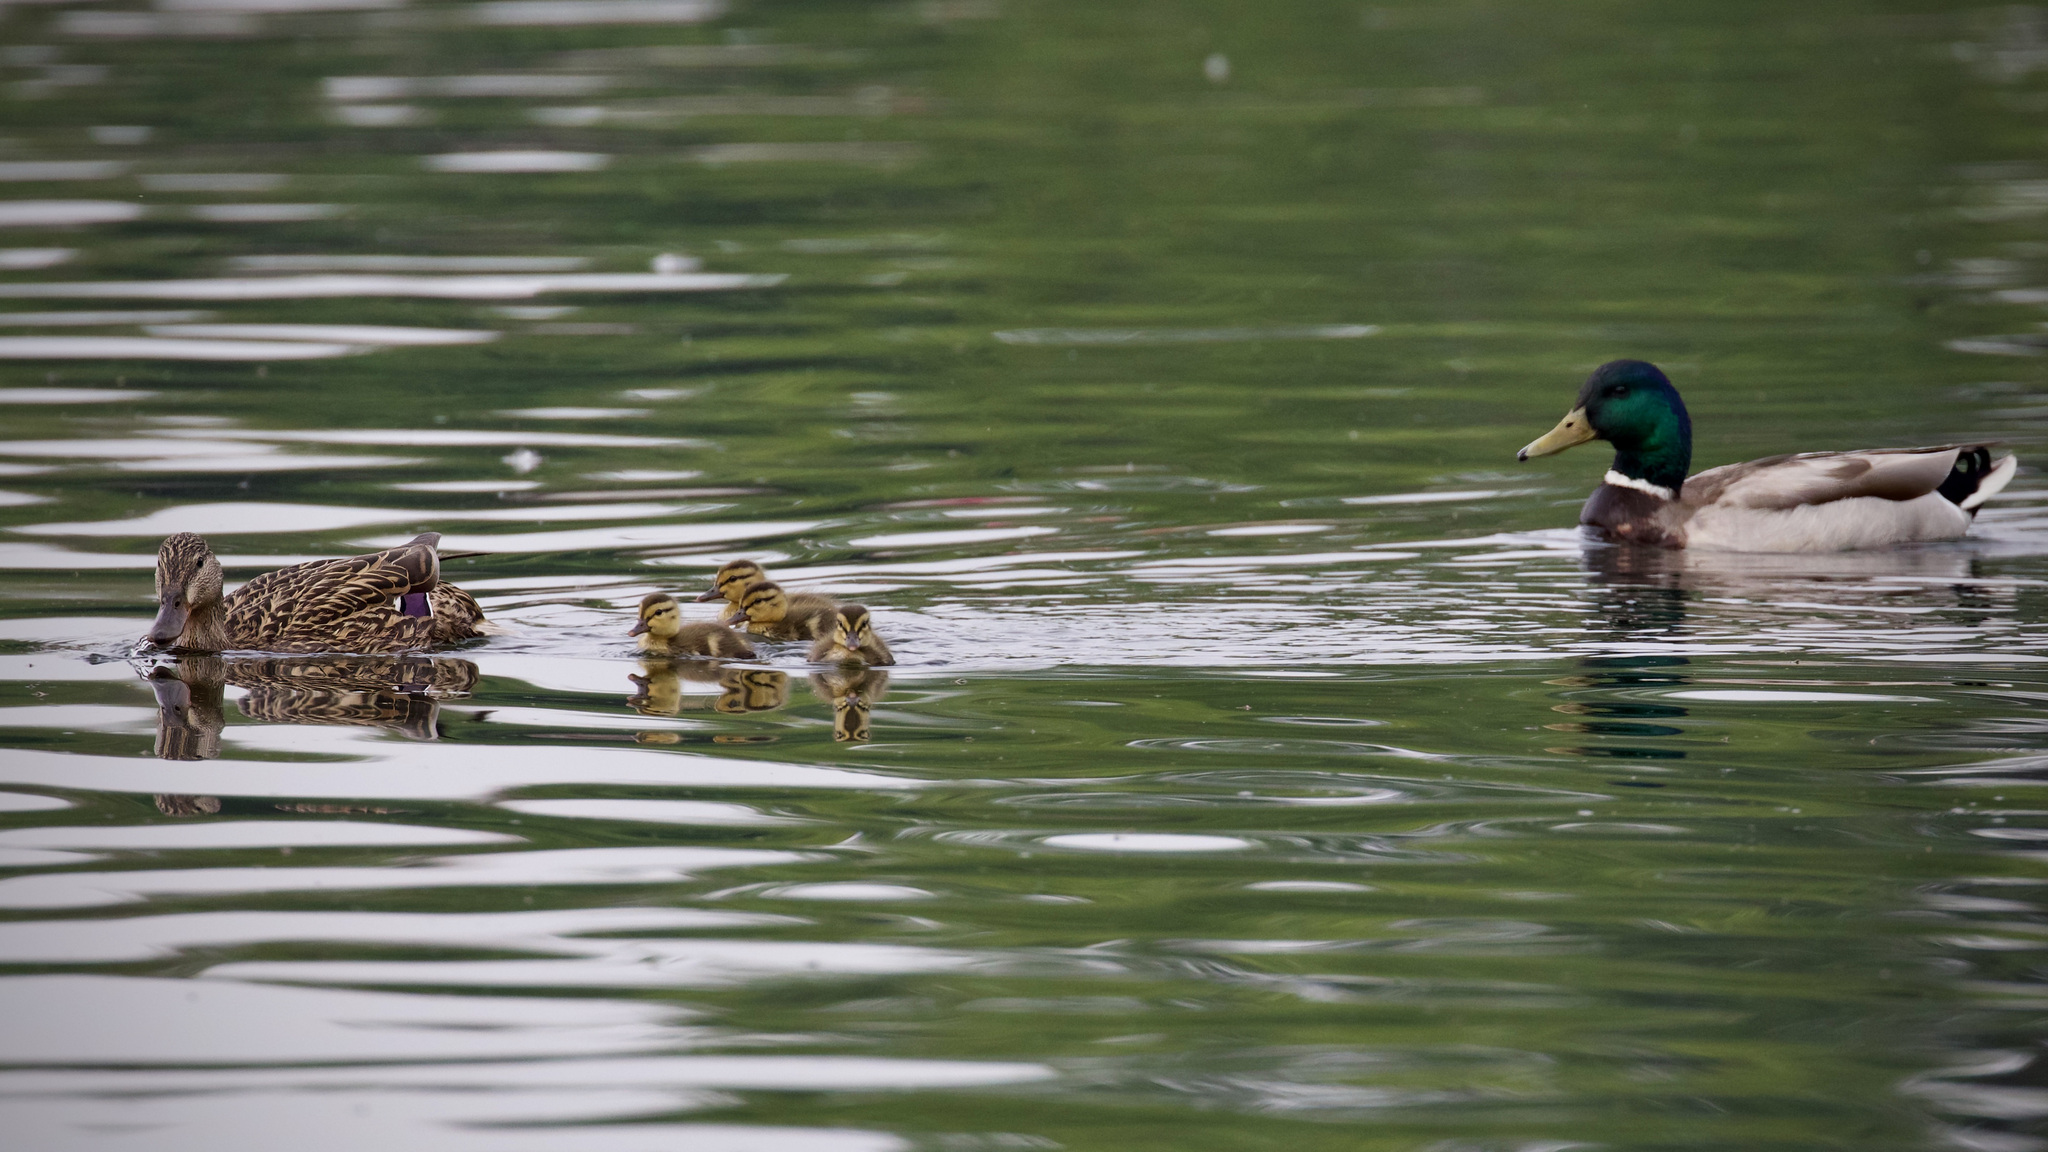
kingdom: Animalia
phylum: Chordata
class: Aves
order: Anseriformes
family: Anatidae
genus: Anas
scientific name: Anas platyrhynchos
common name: Mallard
